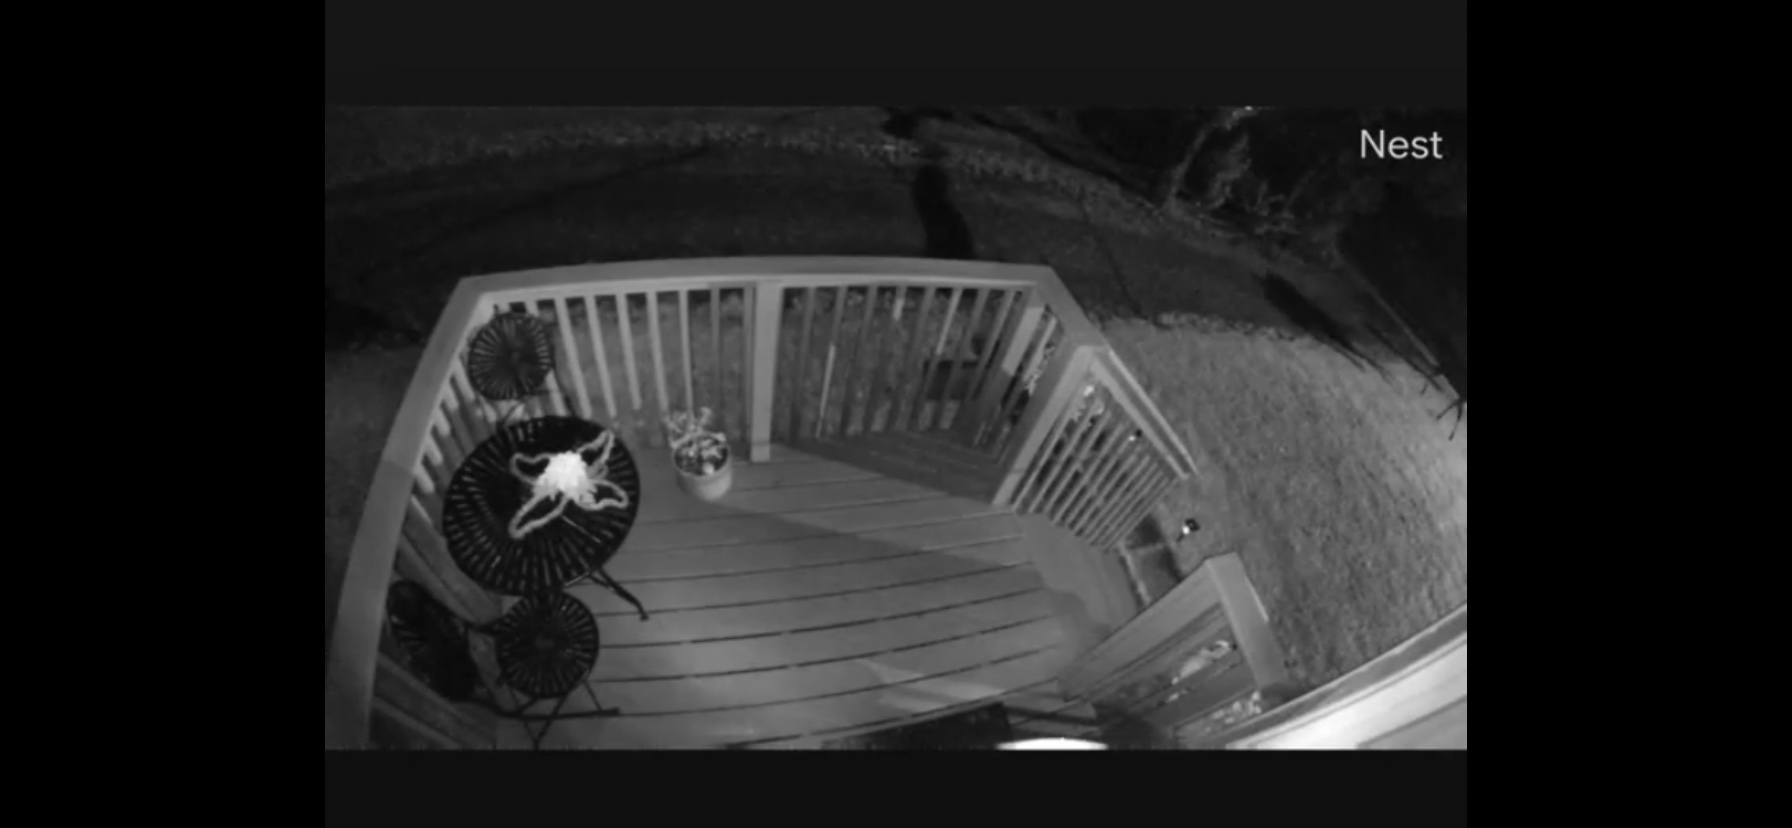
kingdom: Animalia
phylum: Chordata
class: Mammalia
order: Artiodactyla
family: Cervidae
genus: Alces
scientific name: Alces alces
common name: Moose
